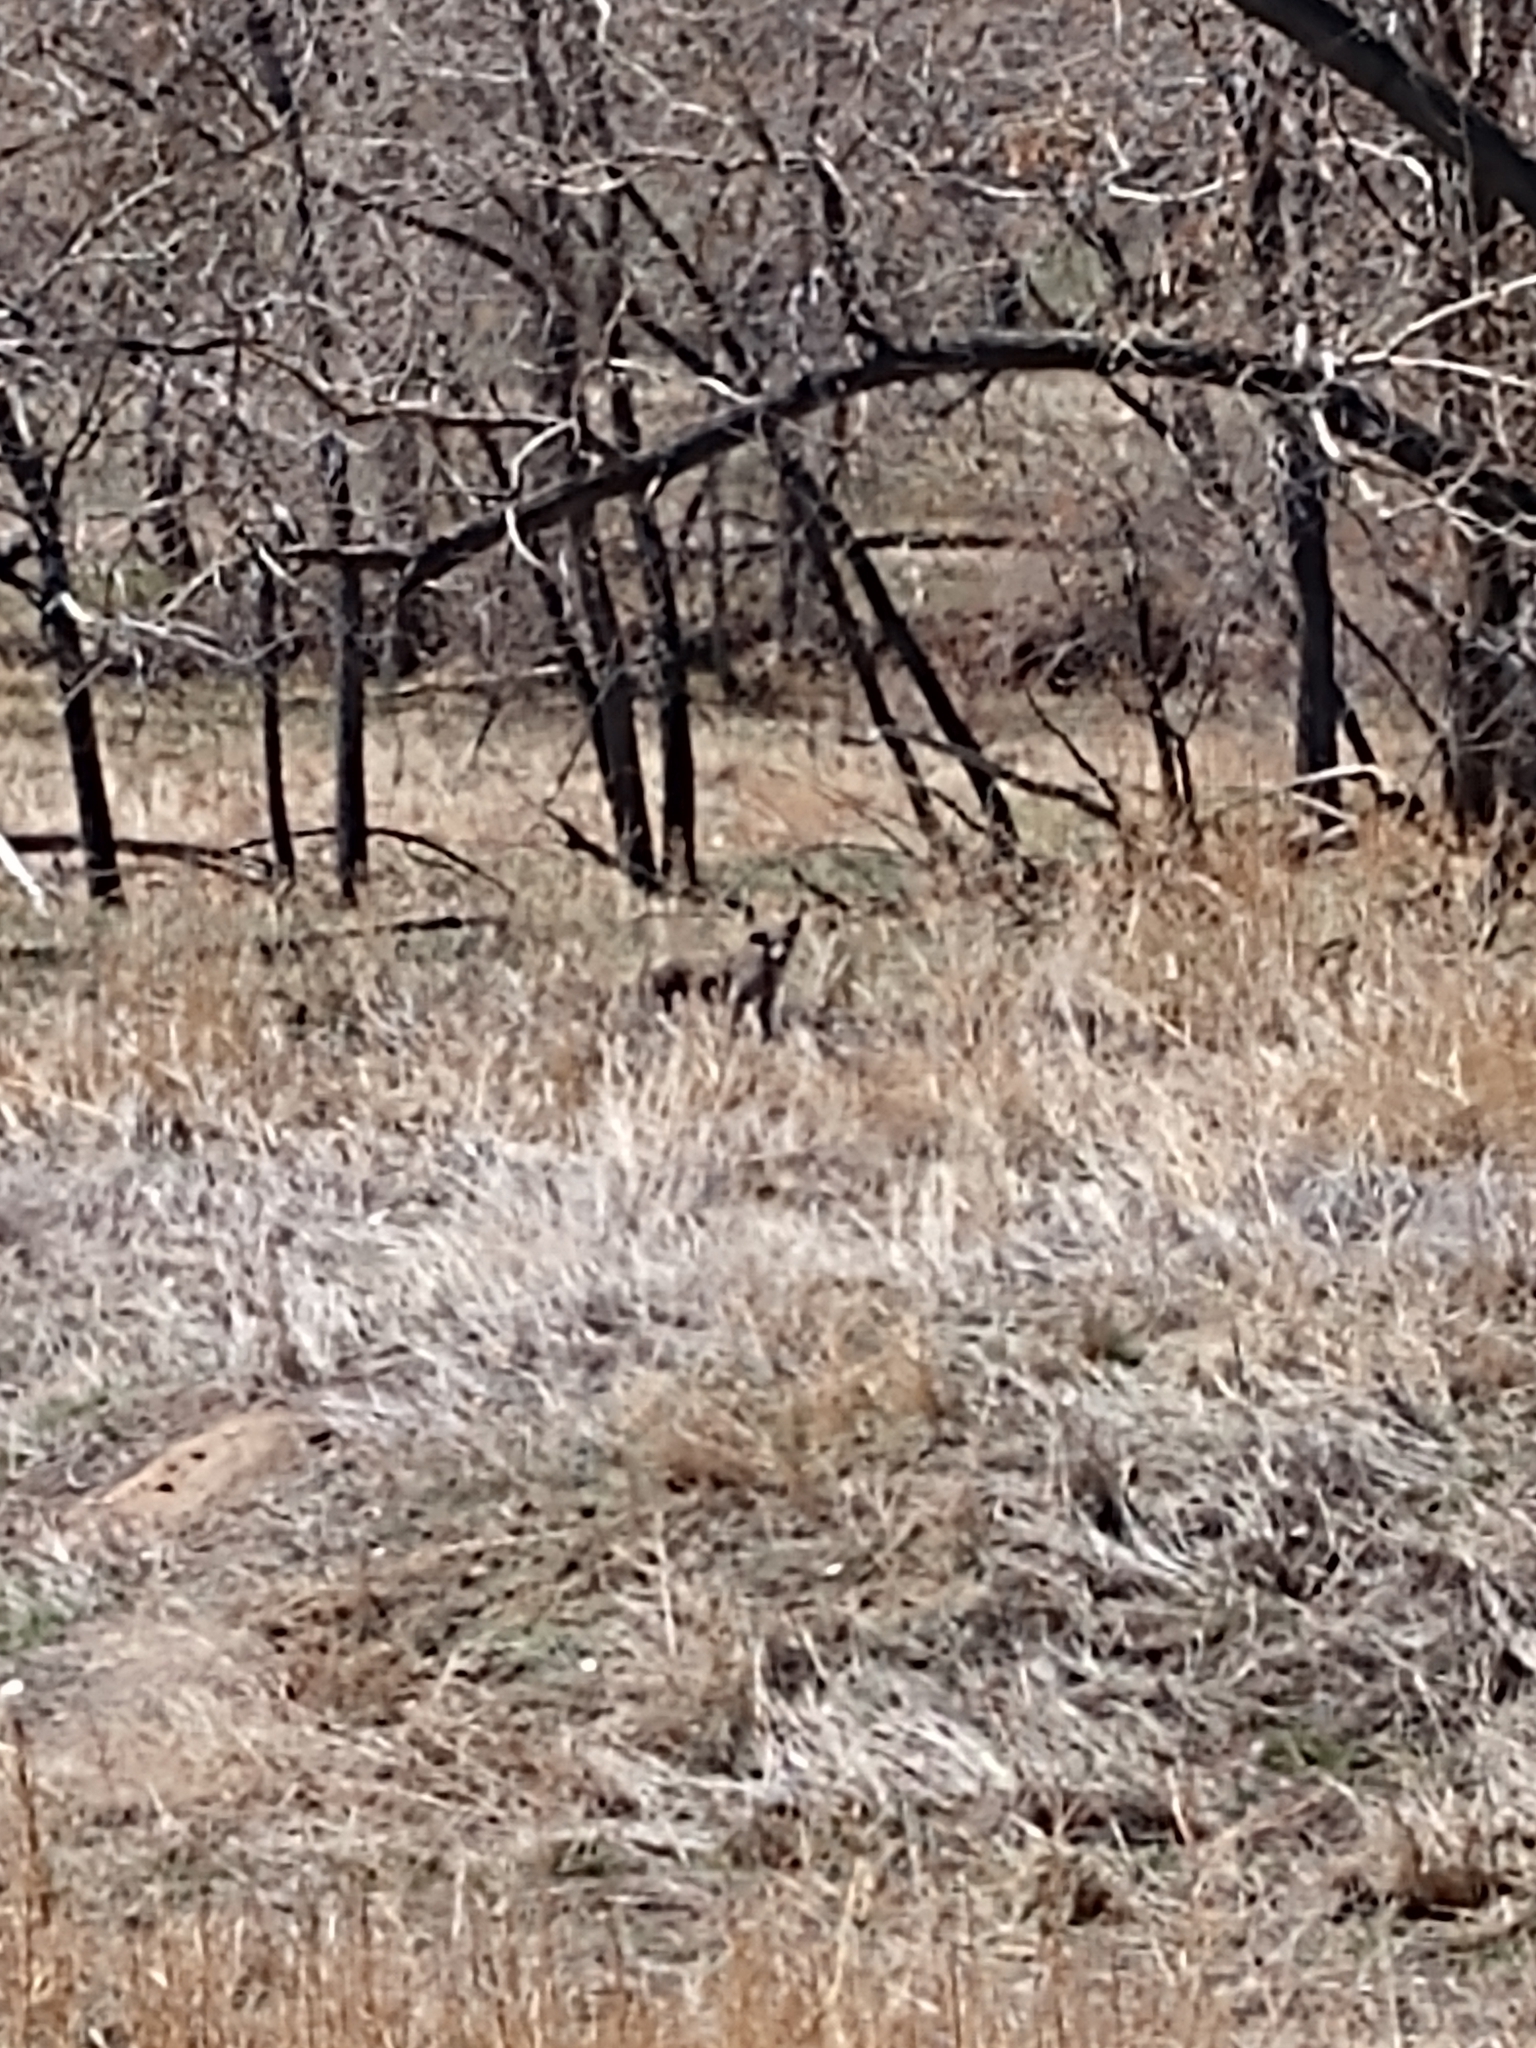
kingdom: Animalia
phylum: Chordata
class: Mammalia
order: Carnivora
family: Canidae
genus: Canis
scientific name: Canis latrans
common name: Coyote
